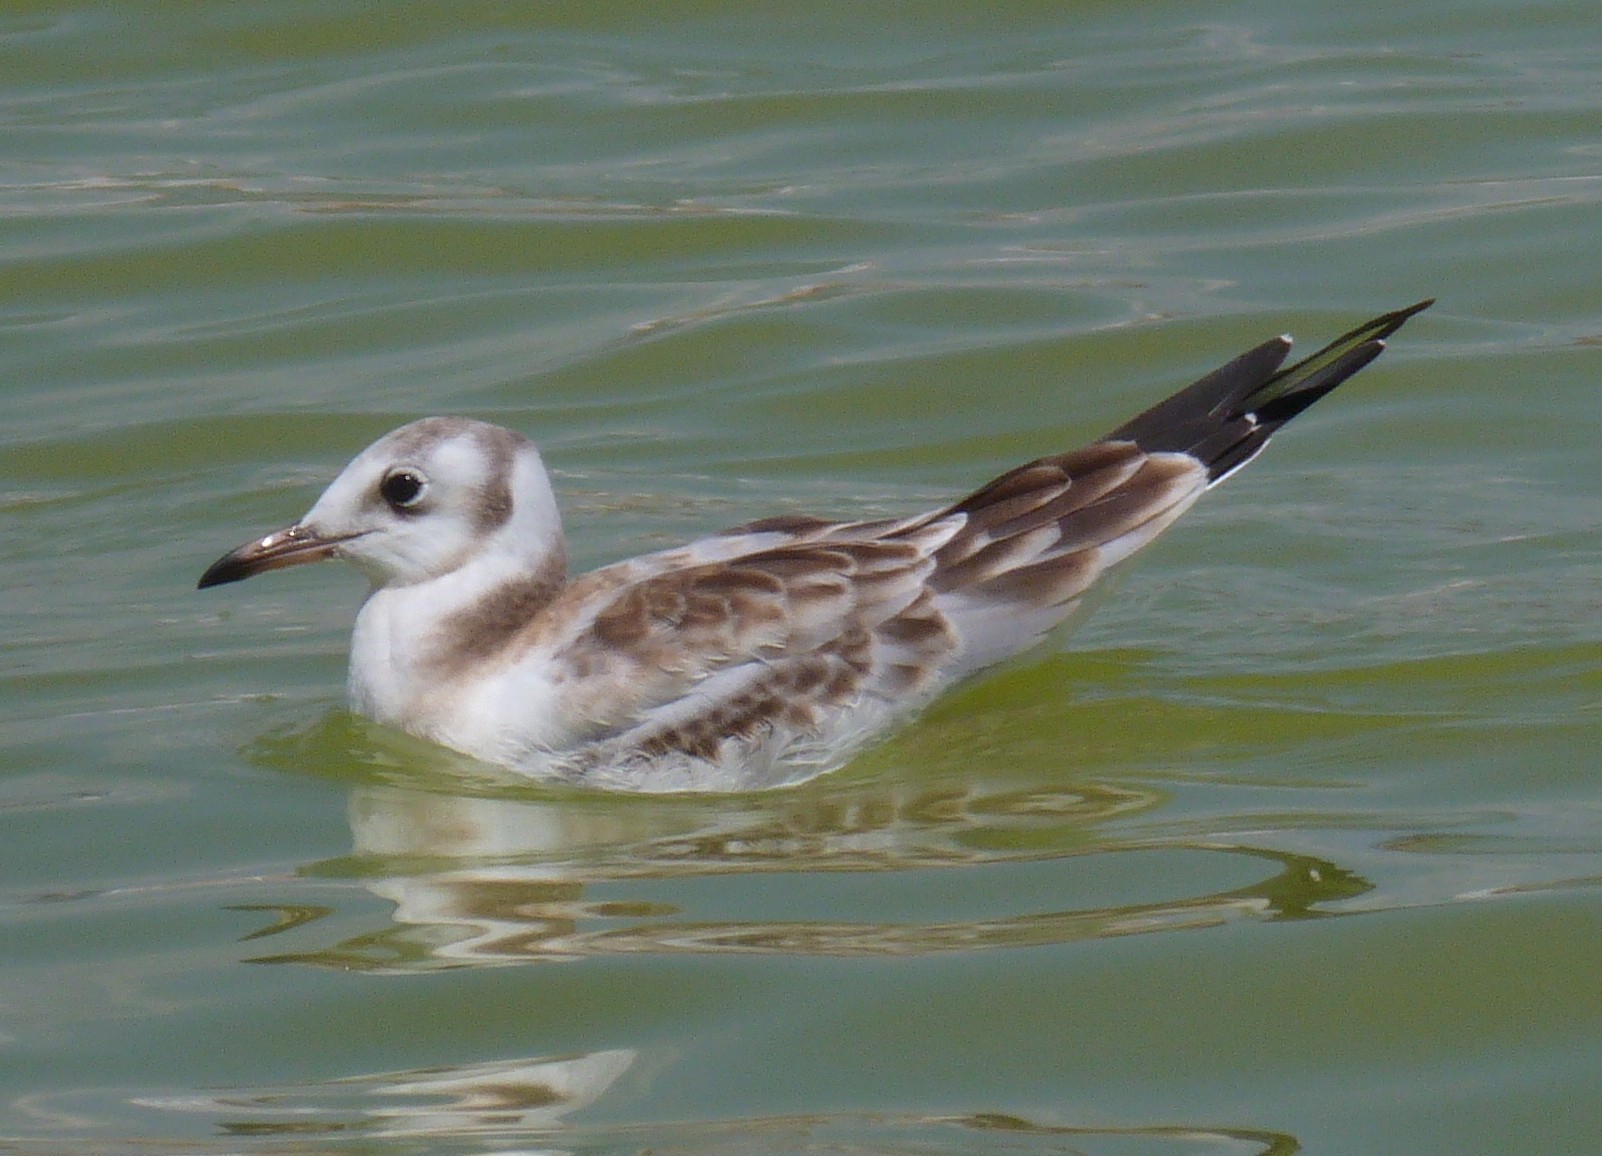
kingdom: Animalia
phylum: Chordata
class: Aves
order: Charadriiformes
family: Laridae
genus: Chroicocephalus
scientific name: Chroicocephalus ridibundus
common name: Black-headed gull
